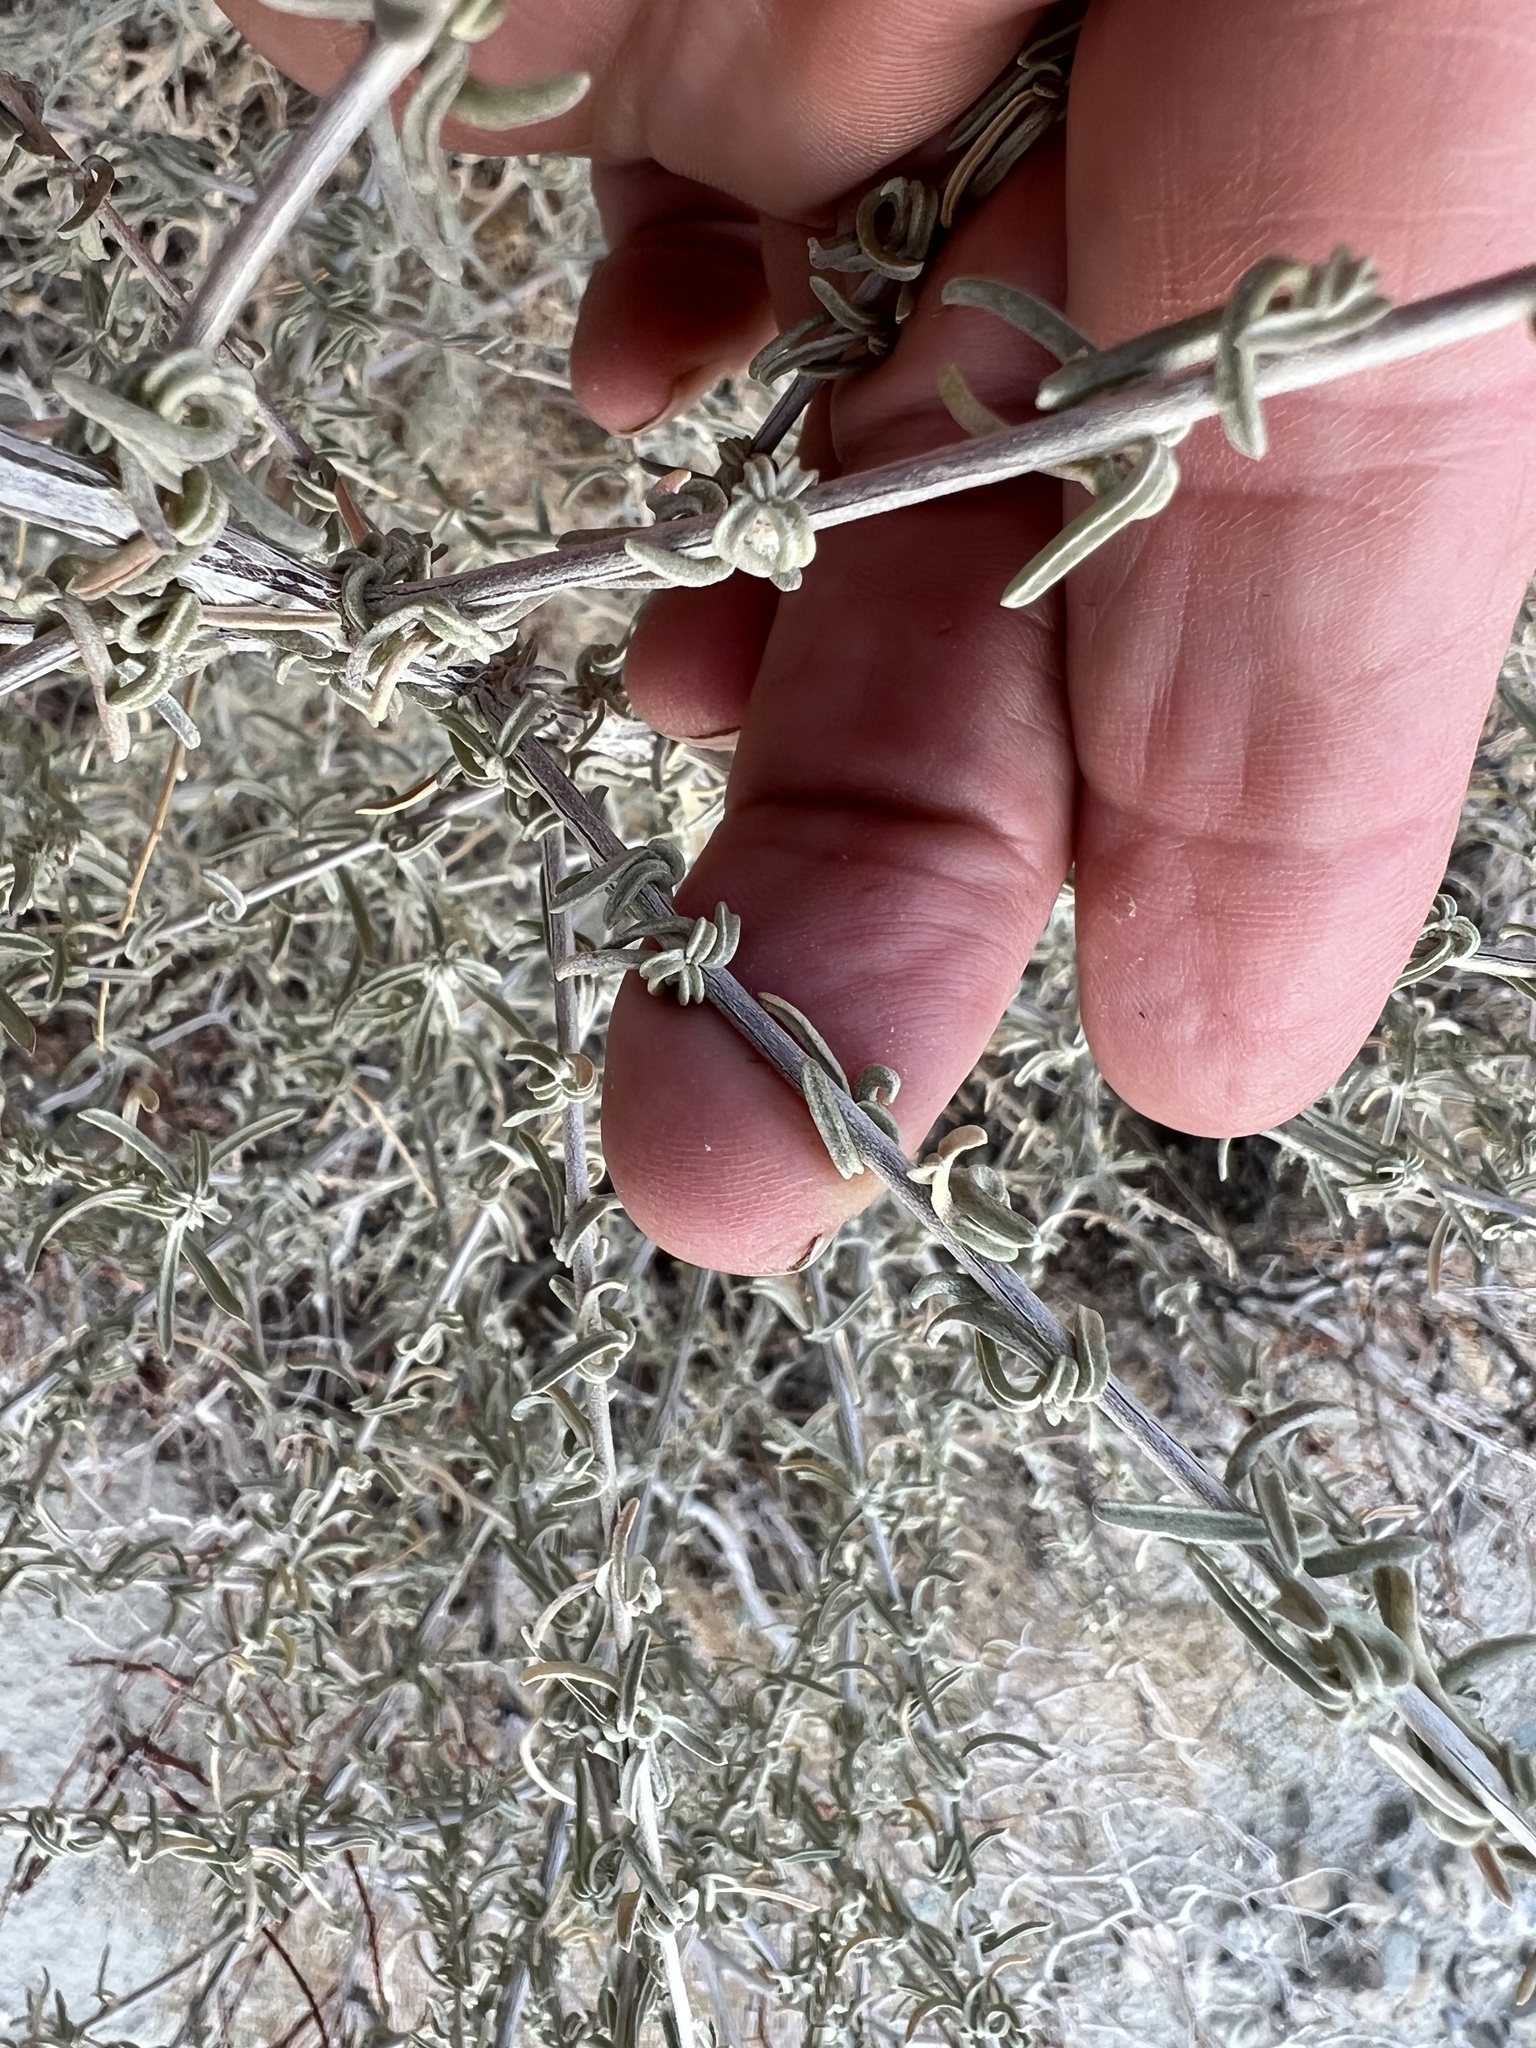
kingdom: Plantae
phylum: Tracheophyta
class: Magnoliopsida
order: Caryophyllales
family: Amaranthaceae
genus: Atriplex
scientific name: Atriplex canescens
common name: Four-wing saltbush
